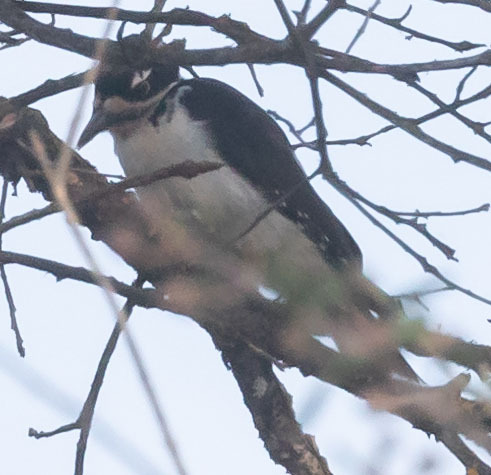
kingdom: Animalia
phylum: Chordata
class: Aves
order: Piciformes
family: Picidae
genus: Leuconotopicus
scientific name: Leuconotopicus villosus
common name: Hairy woodpecker
